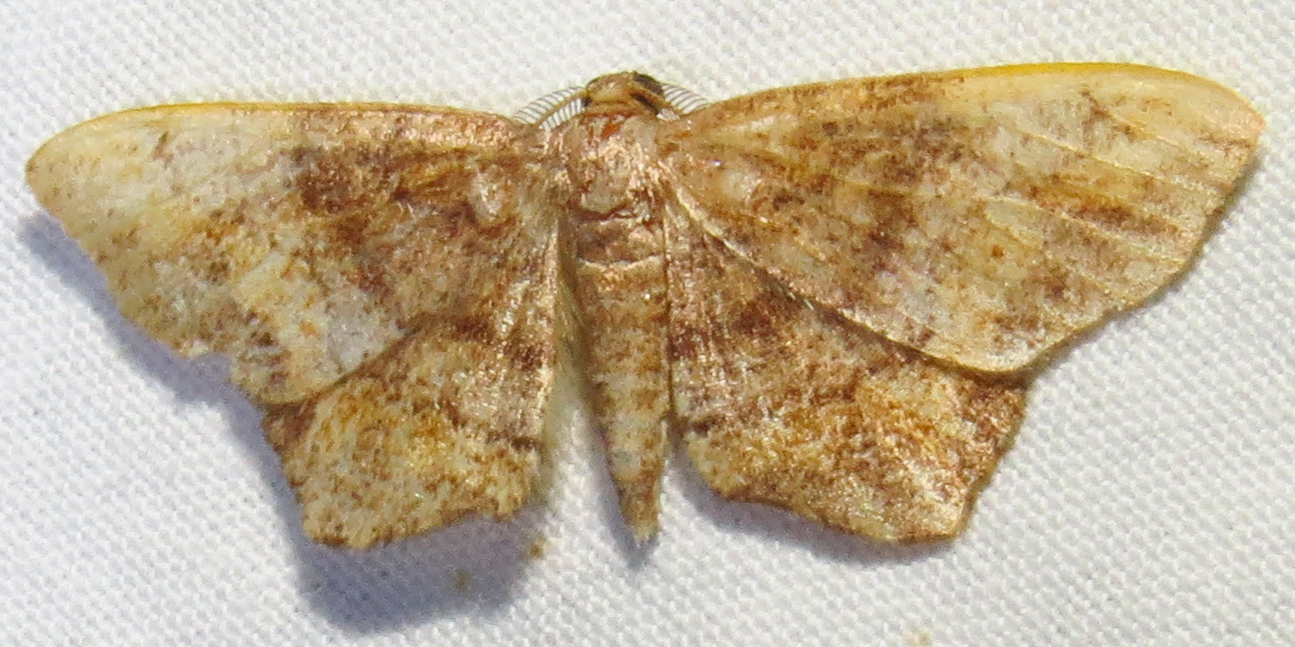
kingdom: Animalia
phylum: Arthropoda
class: Insecta
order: Lepidoptera
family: Geometridae
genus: Hypagyrtis
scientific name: Hypagyrtis unipunctata
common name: One-spotted variant
